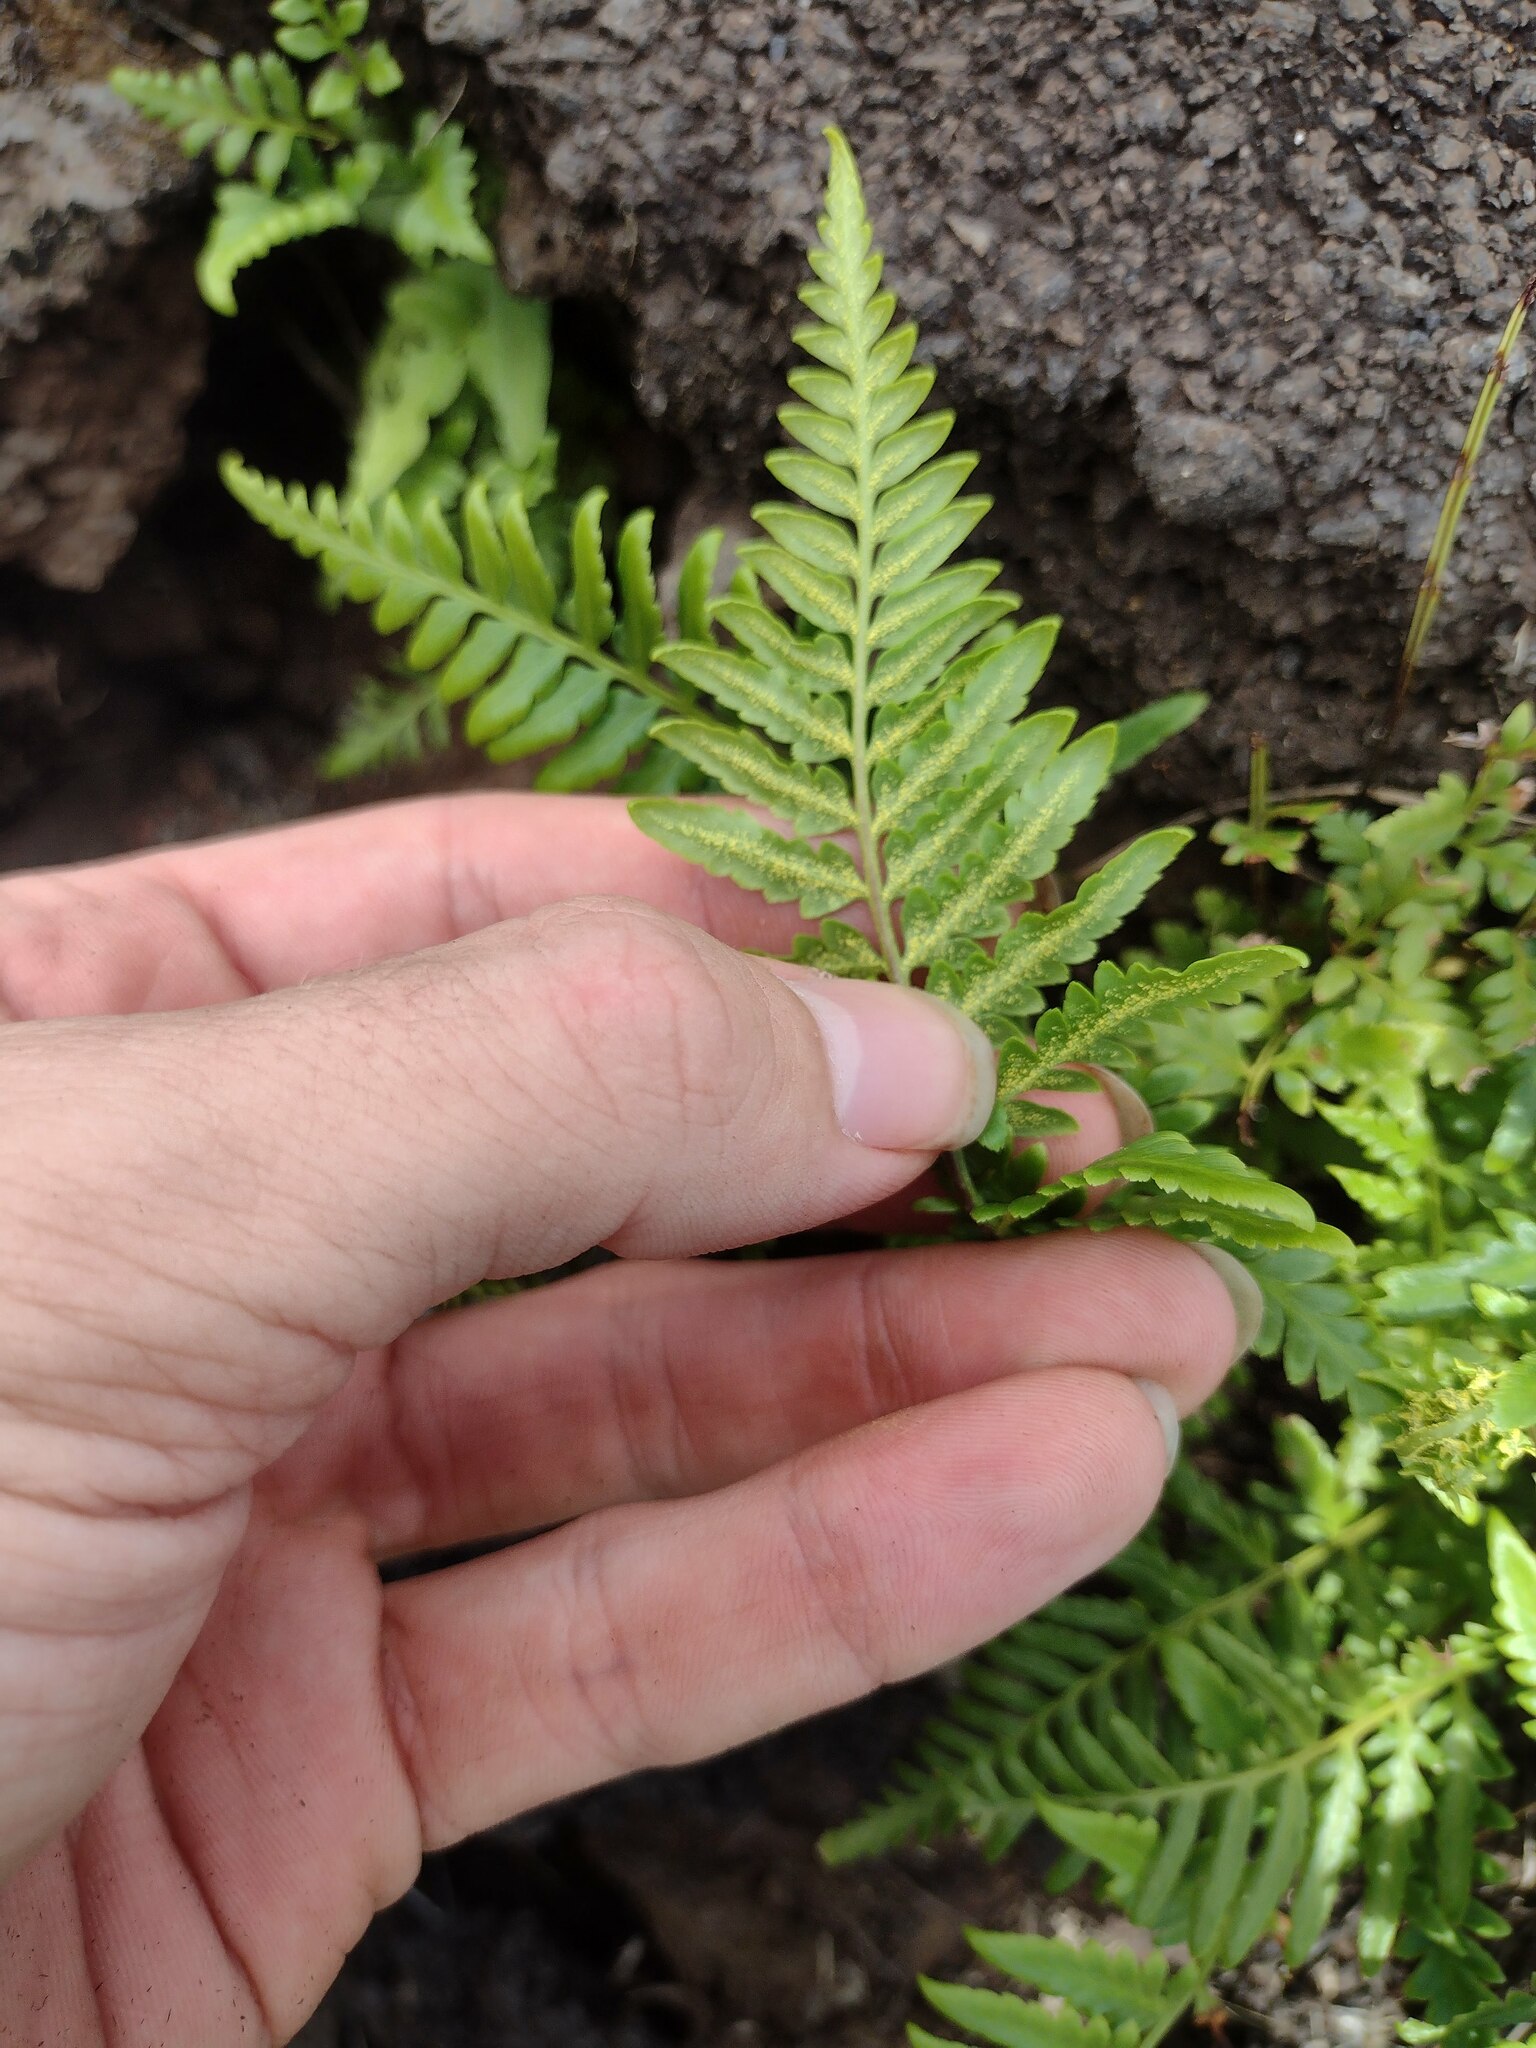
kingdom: Plantae
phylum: Tracheophyta
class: Polypodiopsida
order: Polypodiales
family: Pteridaceae
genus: Pityrogramma
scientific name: Pityrogramma austroamericana
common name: Leatherleaf goldback fern
